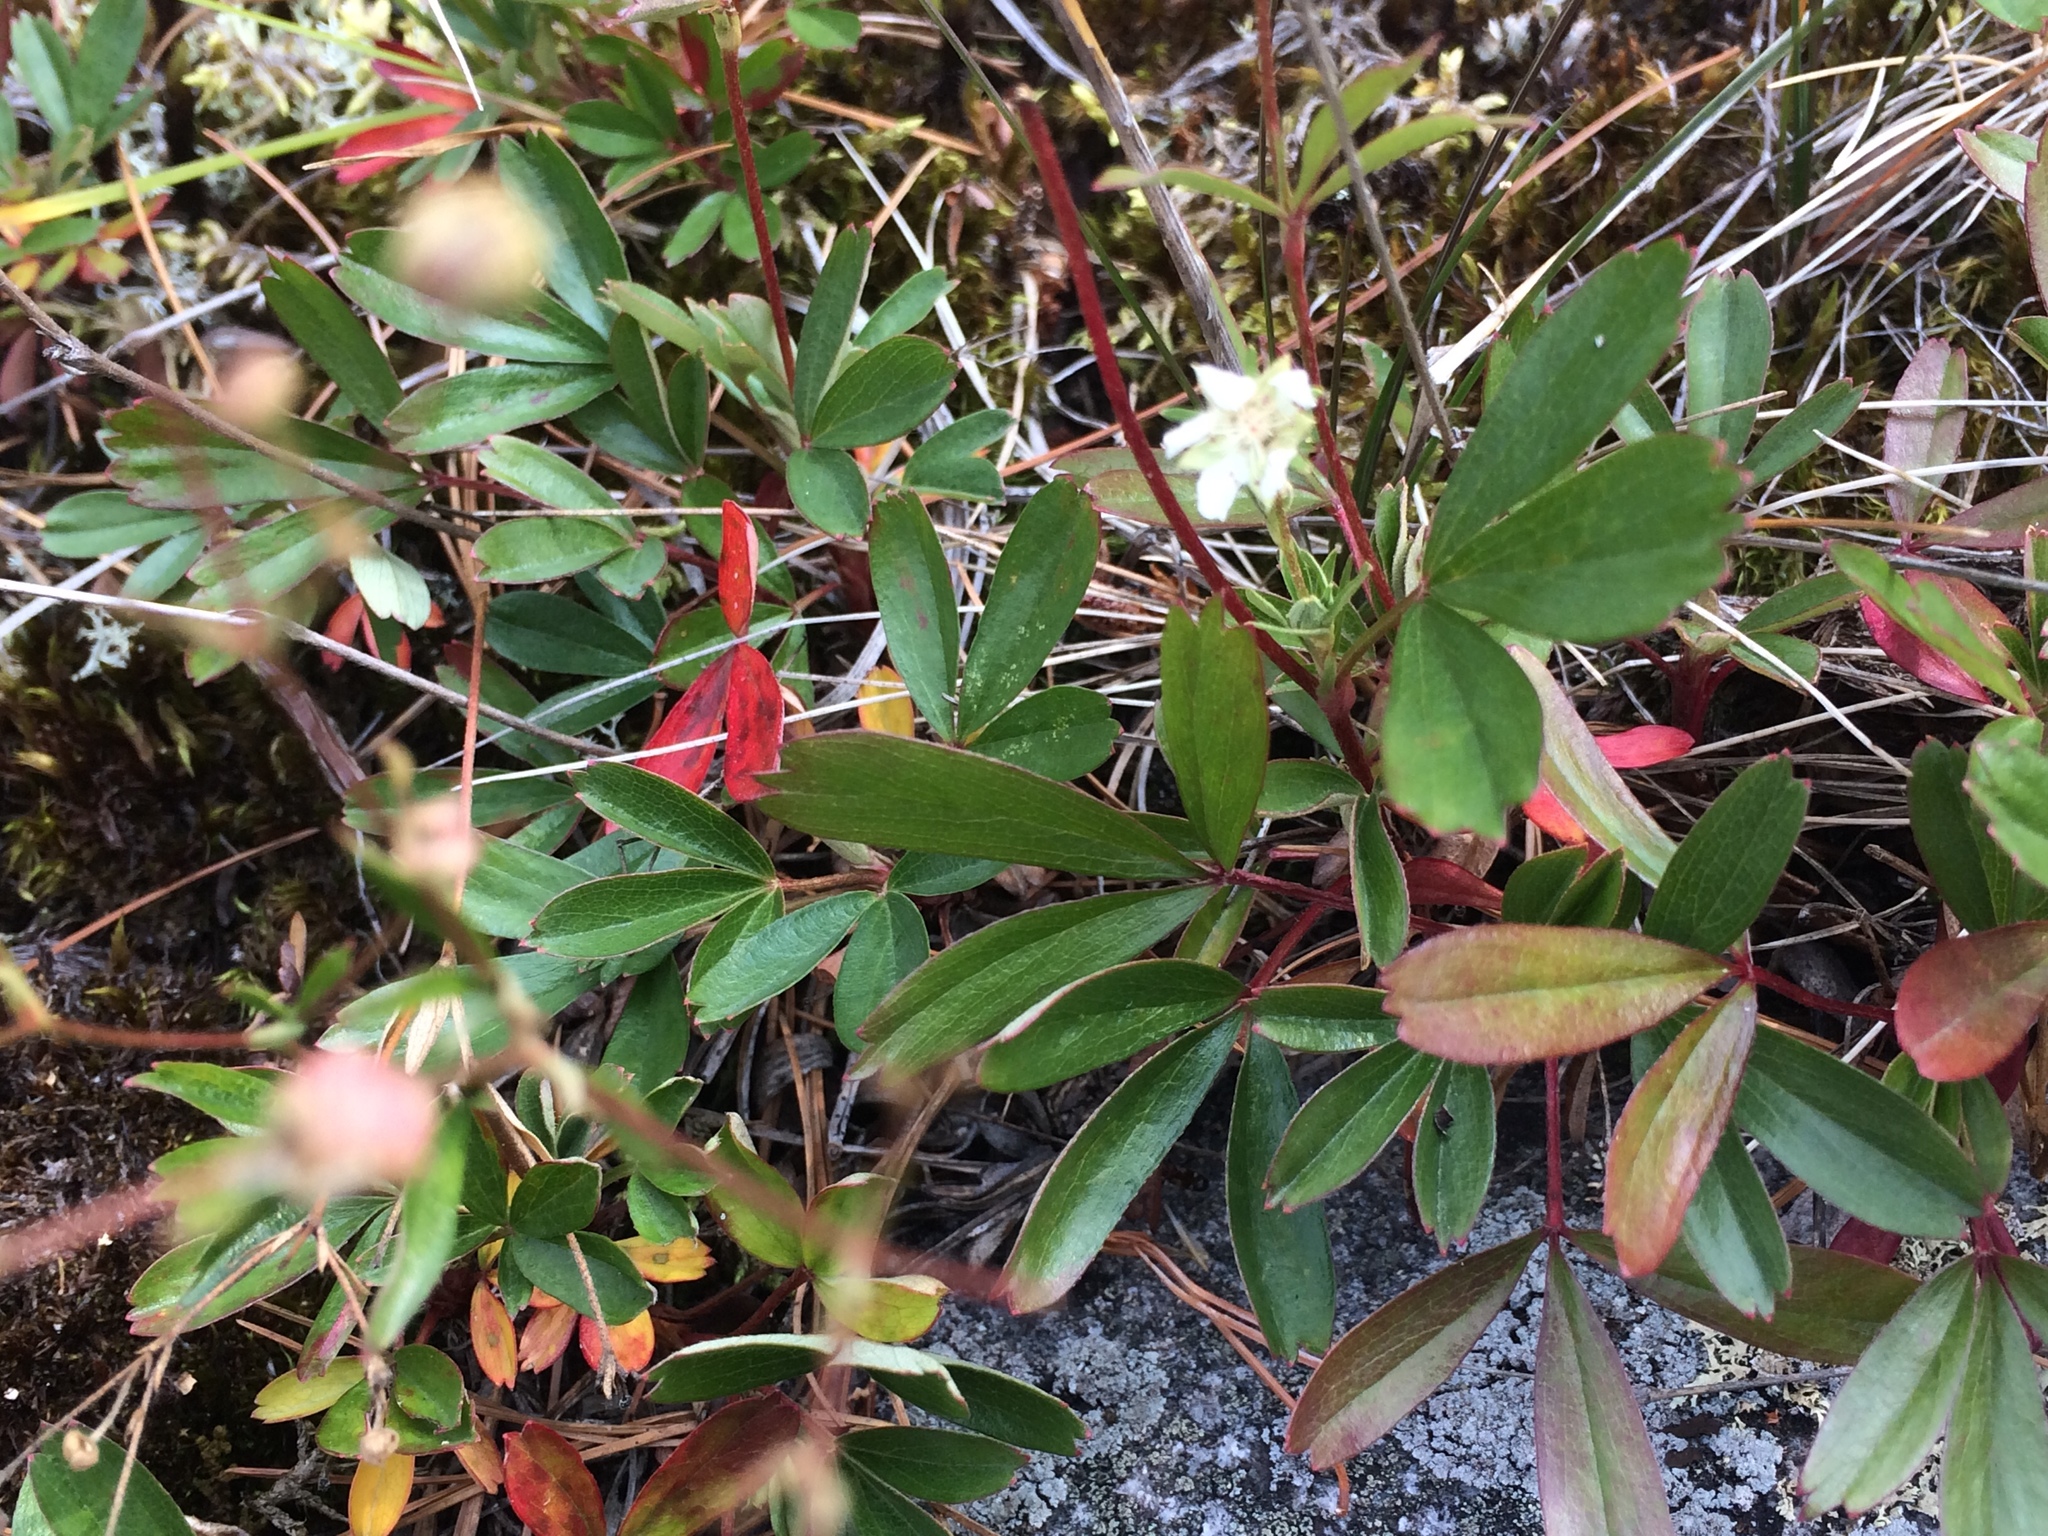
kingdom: Plantae
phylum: Tracheophyta
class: Magnoliopsida
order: Rosales
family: Rosaceae
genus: Sibbaldia
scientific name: Sibbaldia tridentata
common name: Three-toothed cinquefoil
